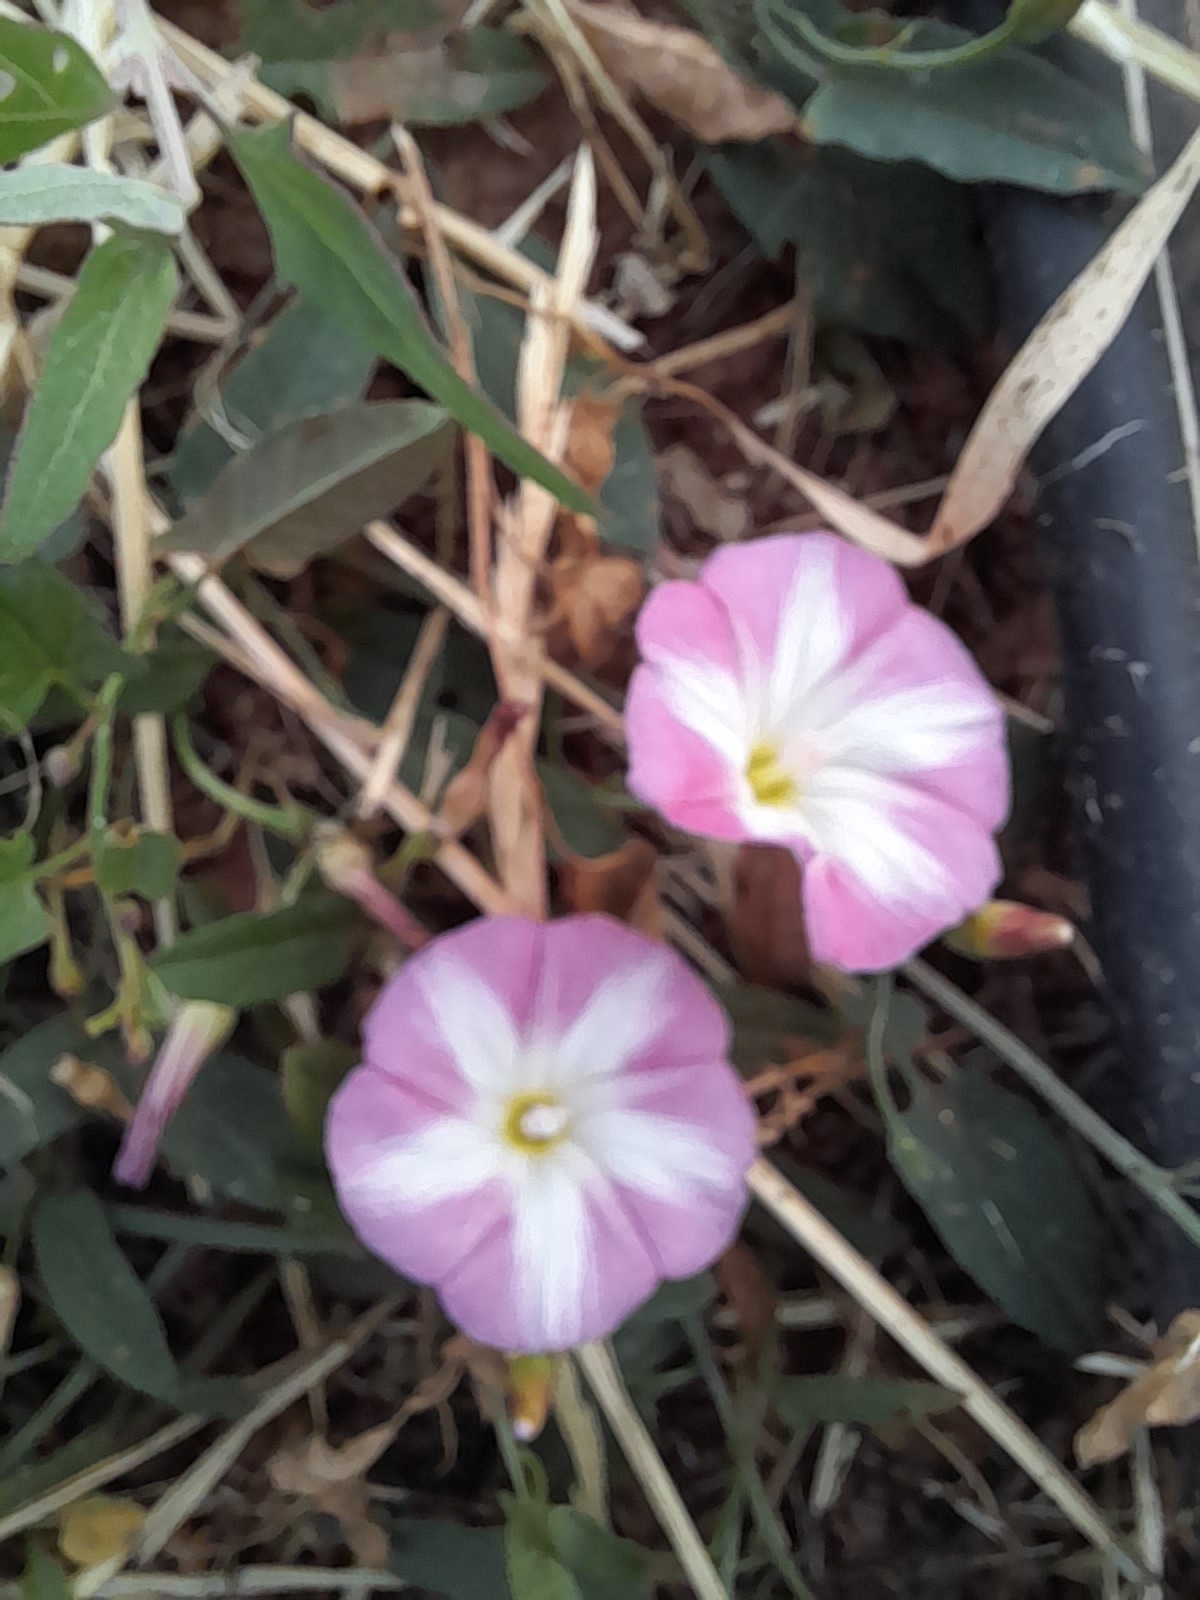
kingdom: Plantae
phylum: Tracheophyta
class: Magnoliopsida
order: Solanales
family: Convolvulaceae
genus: Convolvulus
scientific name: Convolvulus arvensis
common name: Field bindweed
